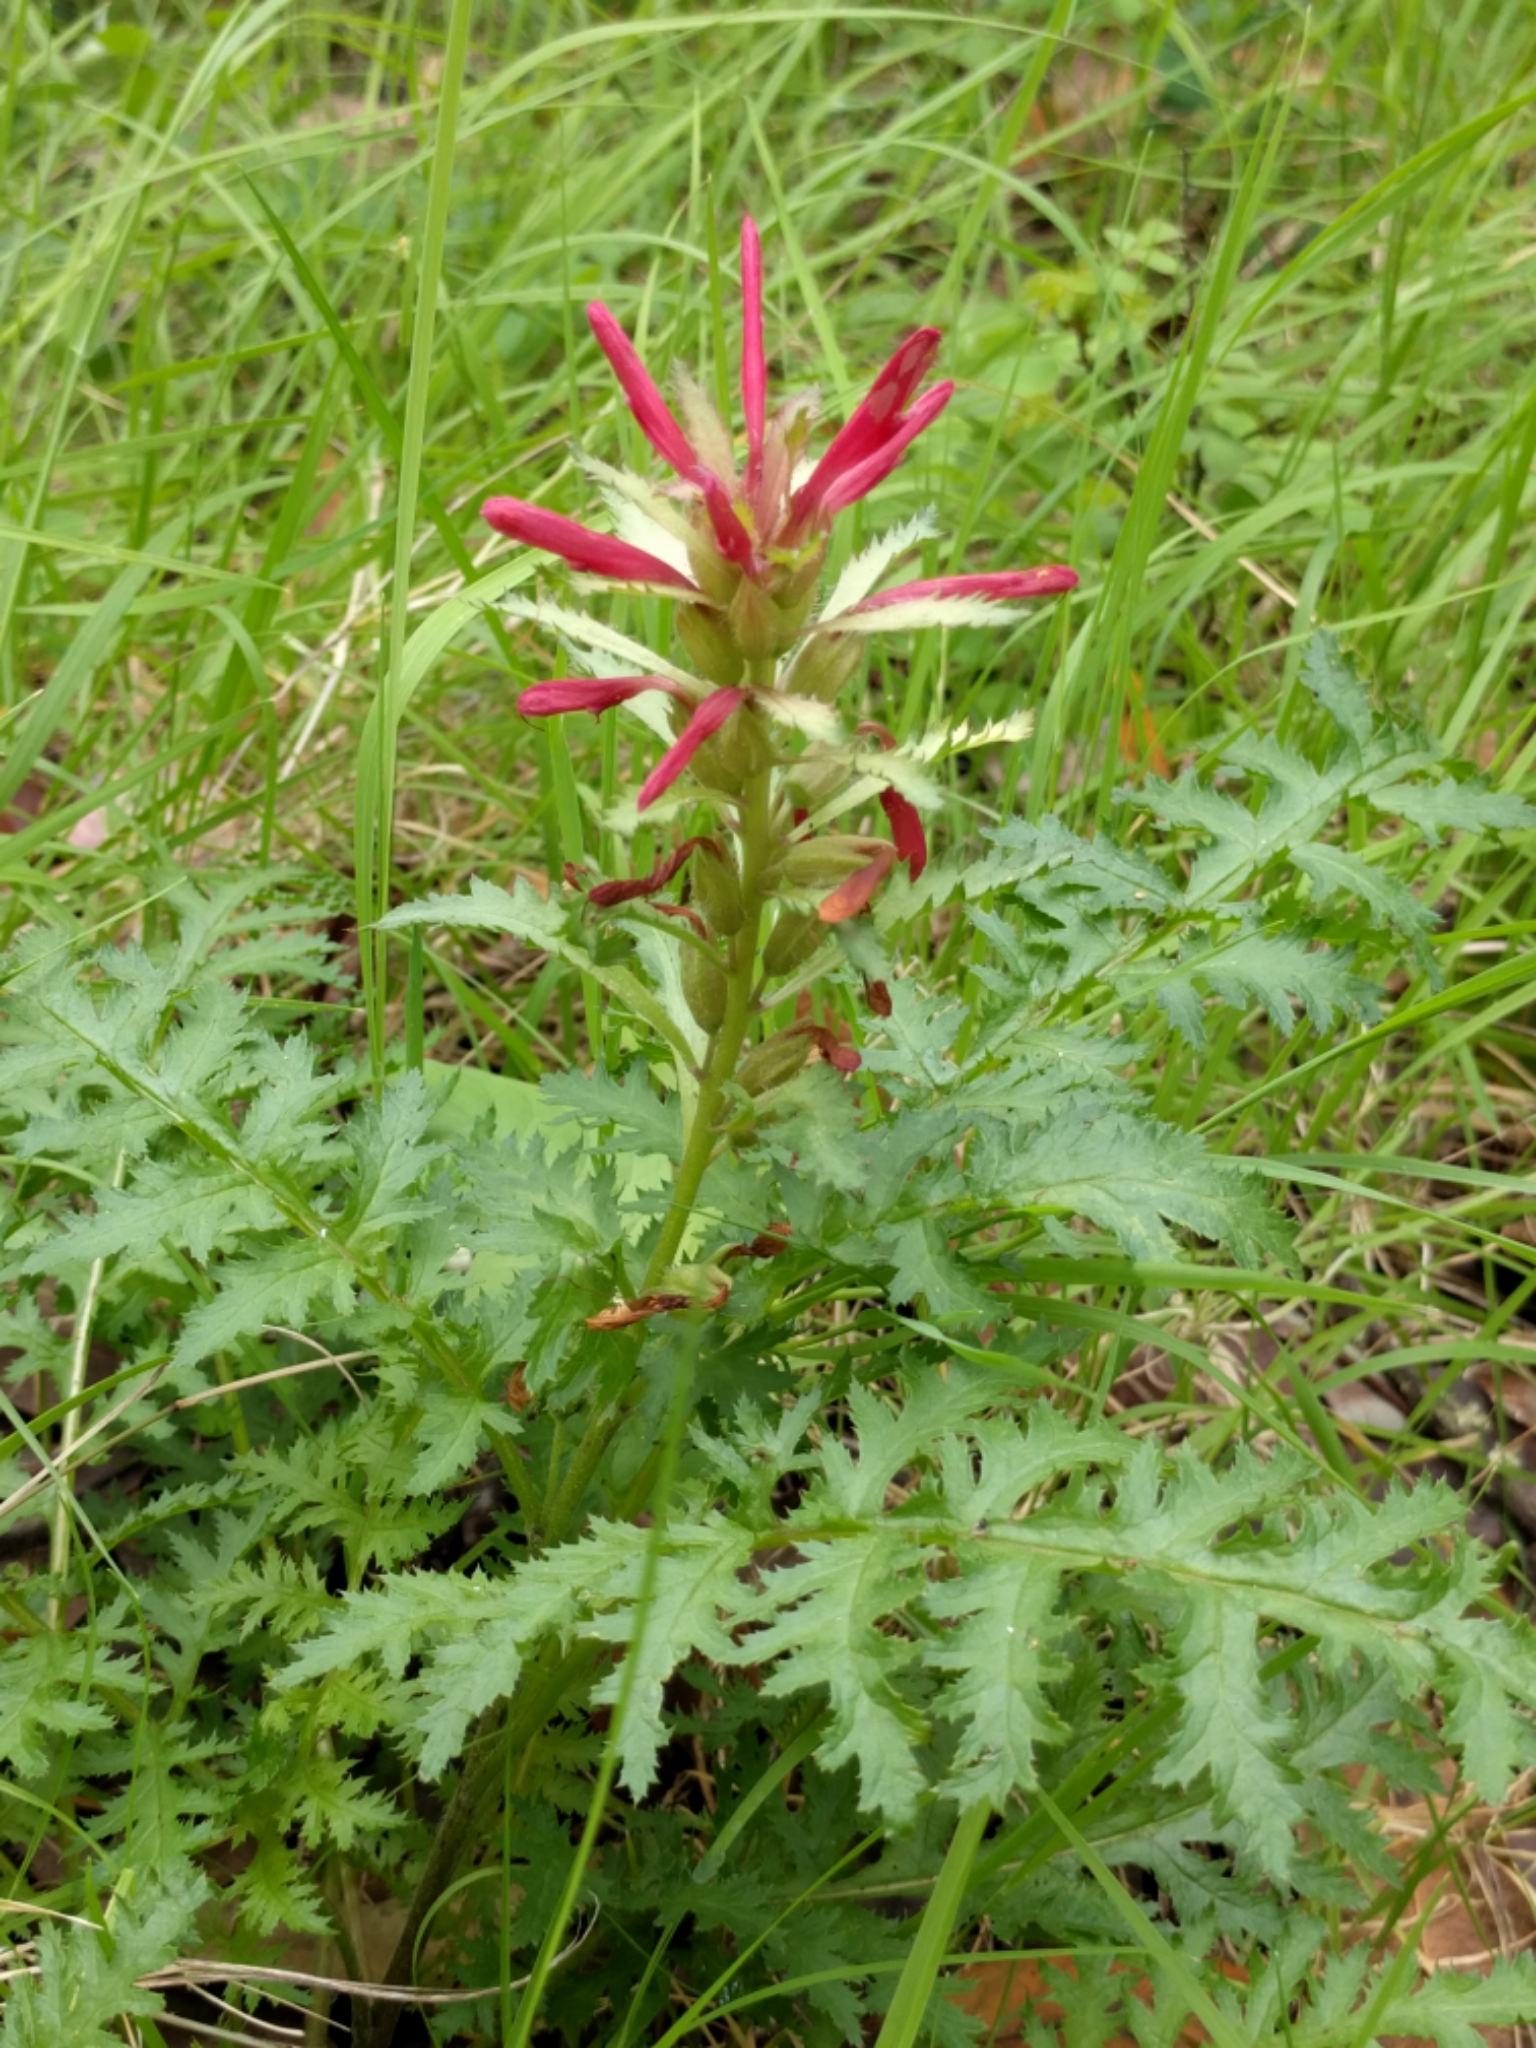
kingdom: Plantae
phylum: Tracheophyta
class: Magnoliopsida
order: Lamiales
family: Orobanchaceae
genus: Pedicularis
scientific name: Pedicularis densiflora
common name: Indian warrior
